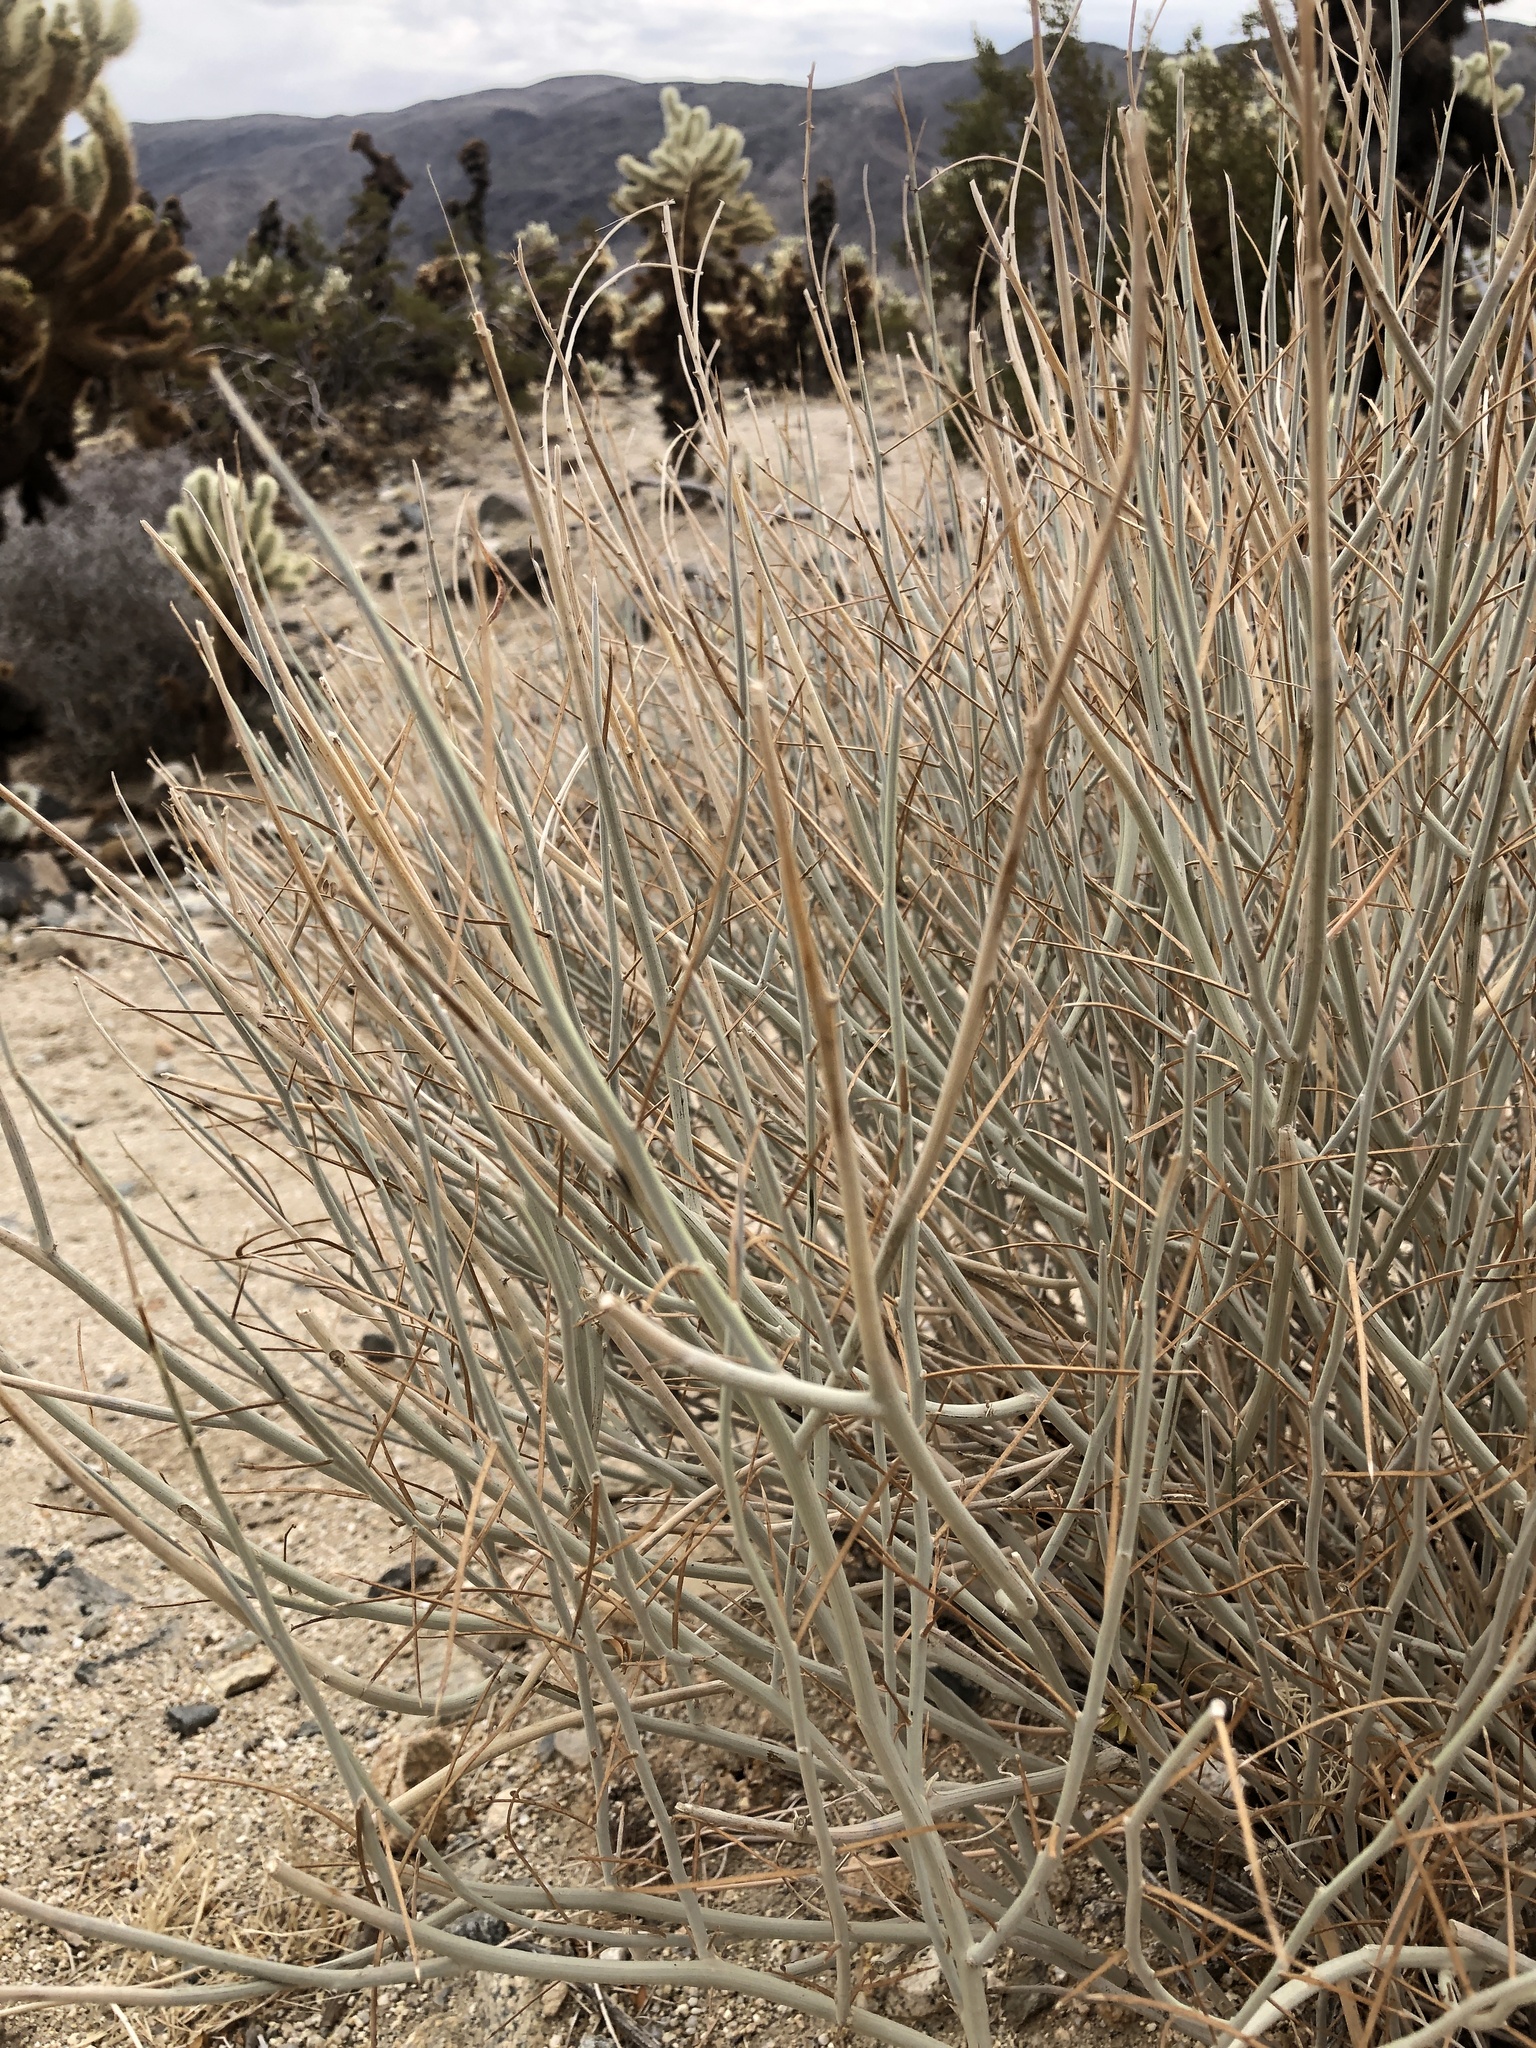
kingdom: Plantae
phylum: Tracheophyta
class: Magnoliopsida
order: Fabales
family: Fabaceae
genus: Senna
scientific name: Senna armata
